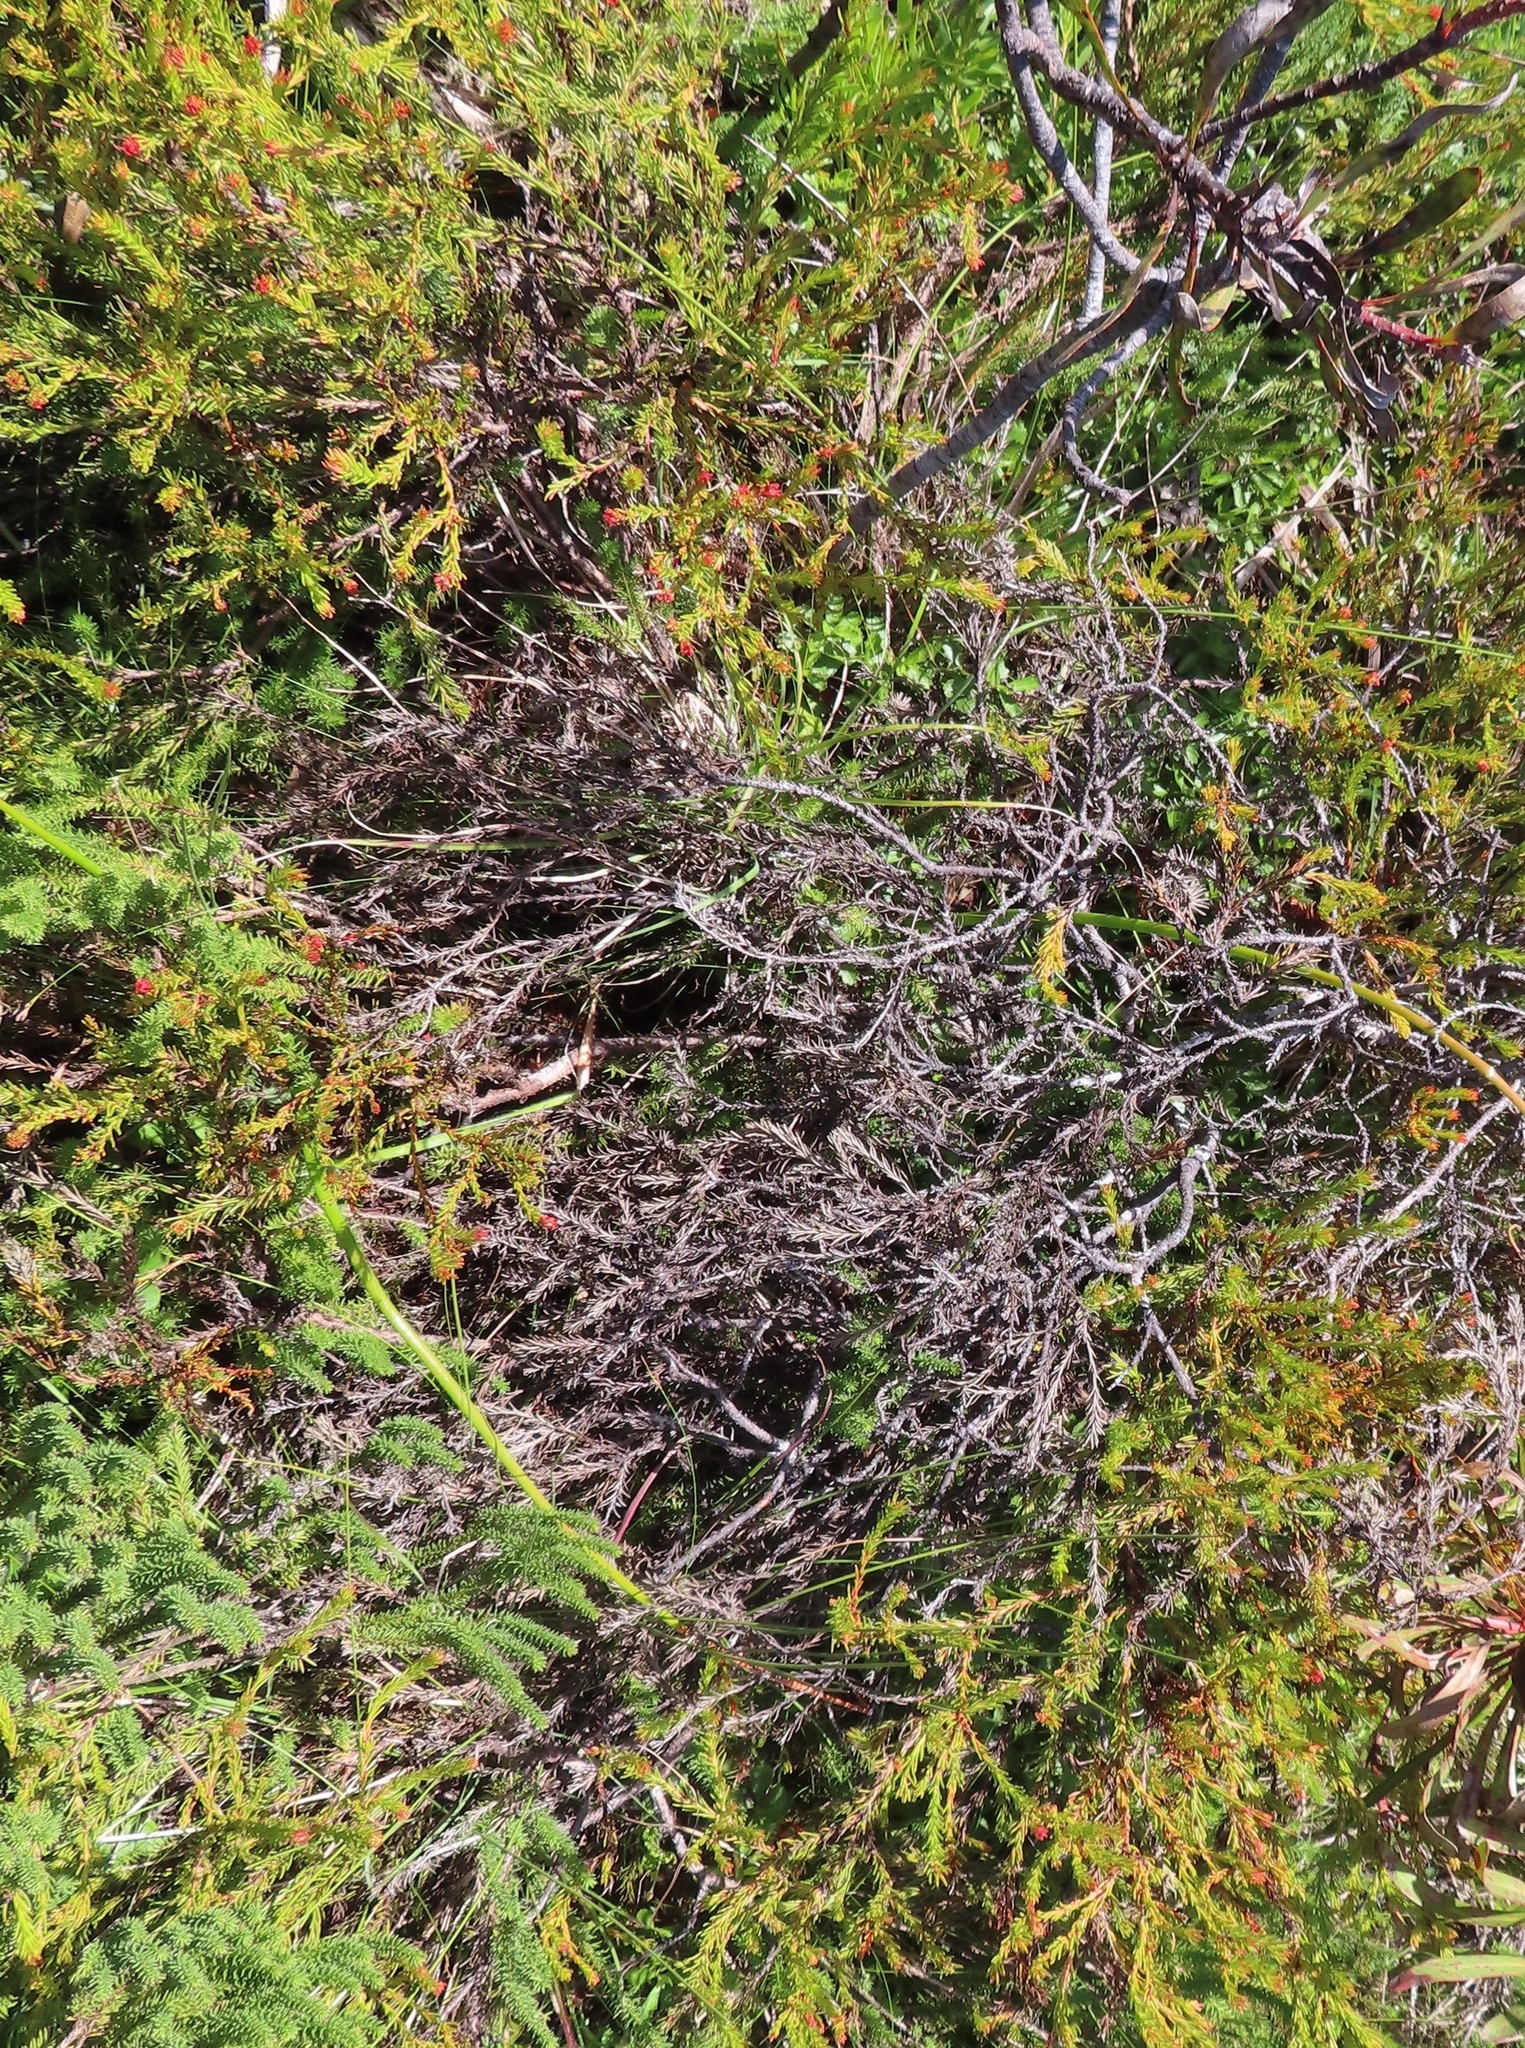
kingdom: Plantae
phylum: Tracheophyta
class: Magnoliopsida
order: Proteales
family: Proteaceae
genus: Protea
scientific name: Protea subulifolia
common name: Awl-leaf sugarbush
